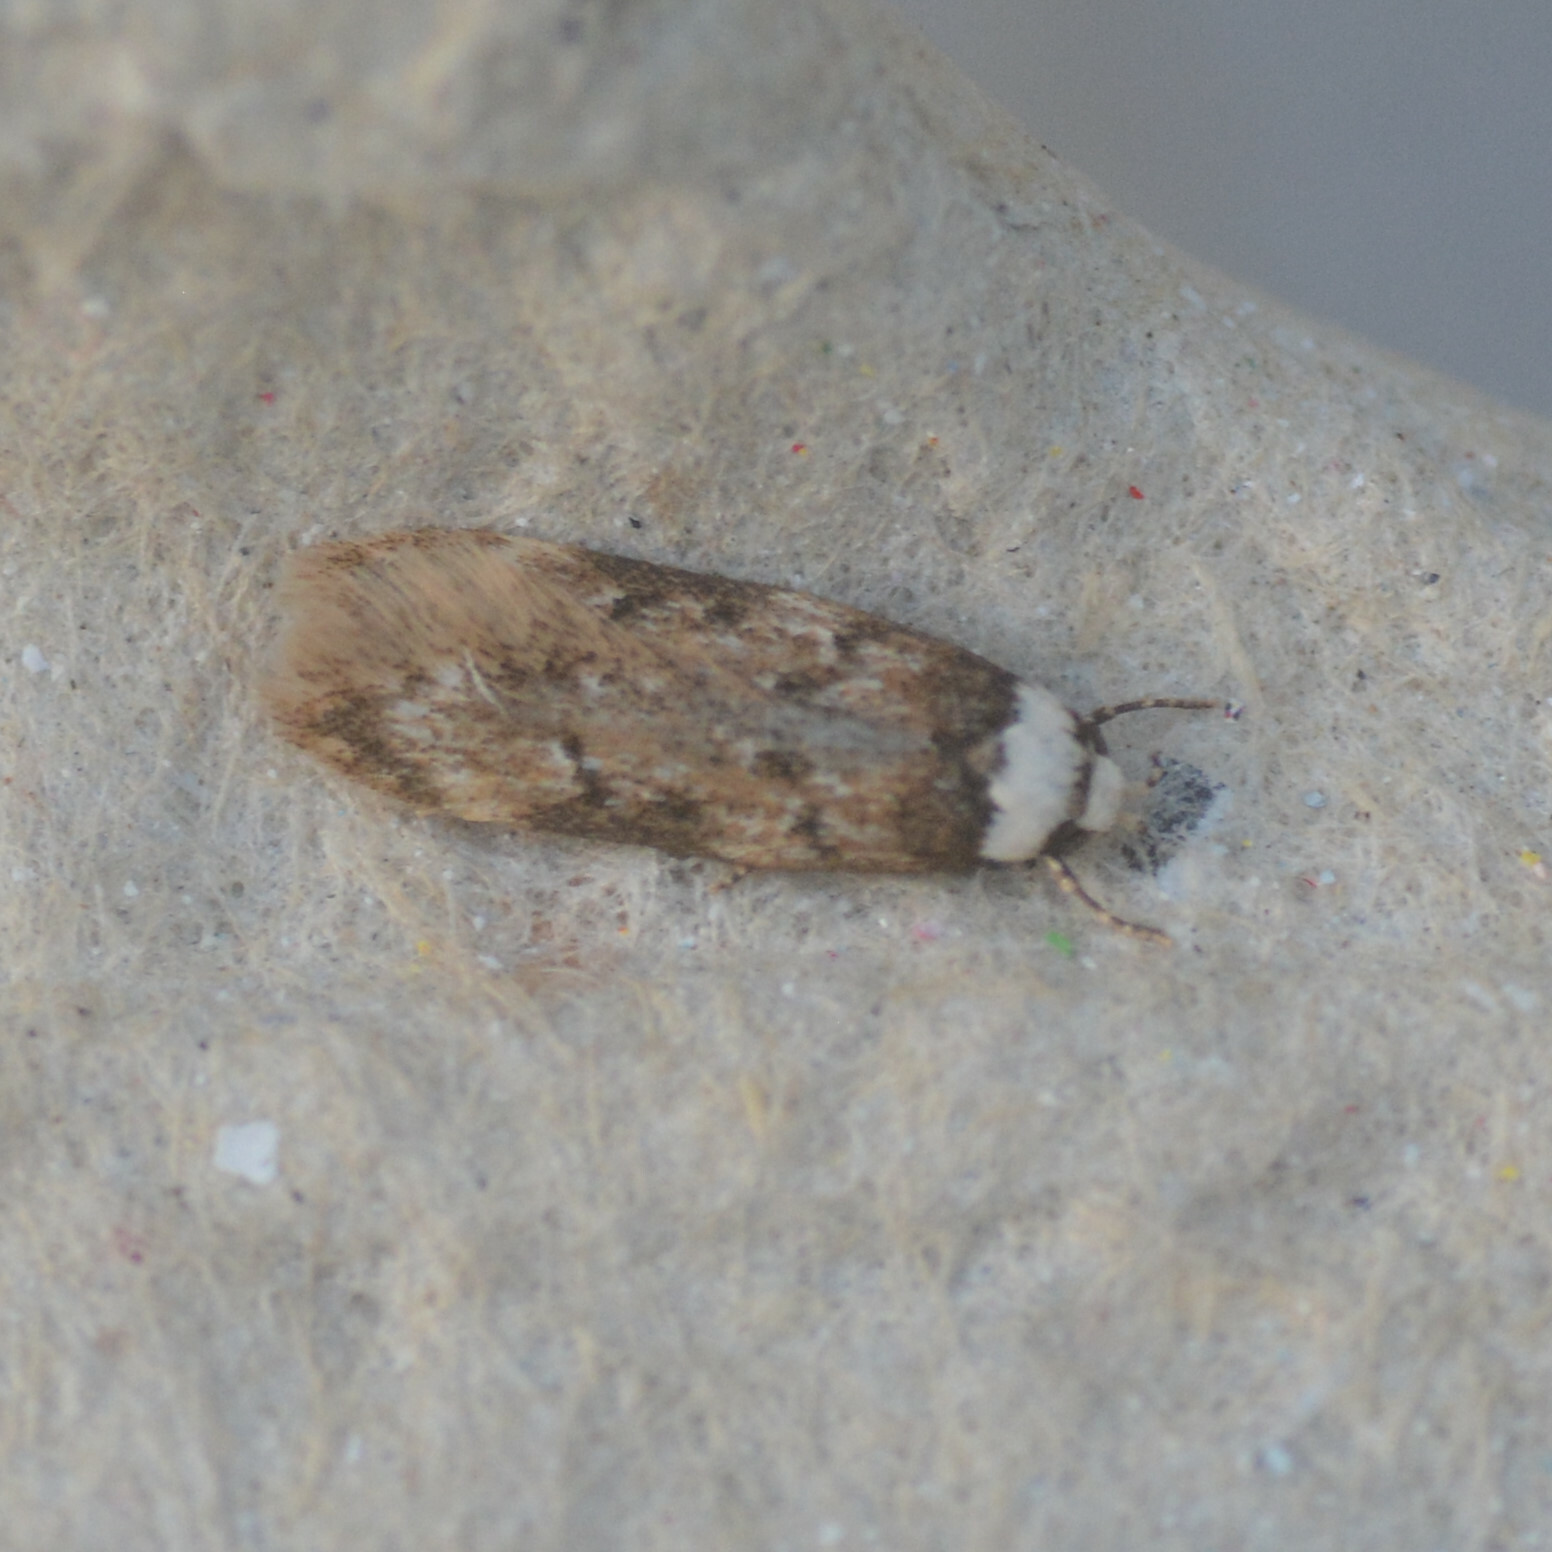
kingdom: Animalia
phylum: Arthropoda
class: Insecta
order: Lepidoptera
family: Oecophoridae
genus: Endrosis
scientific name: Endrosis sarcitrella
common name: White-shouldered house moth
